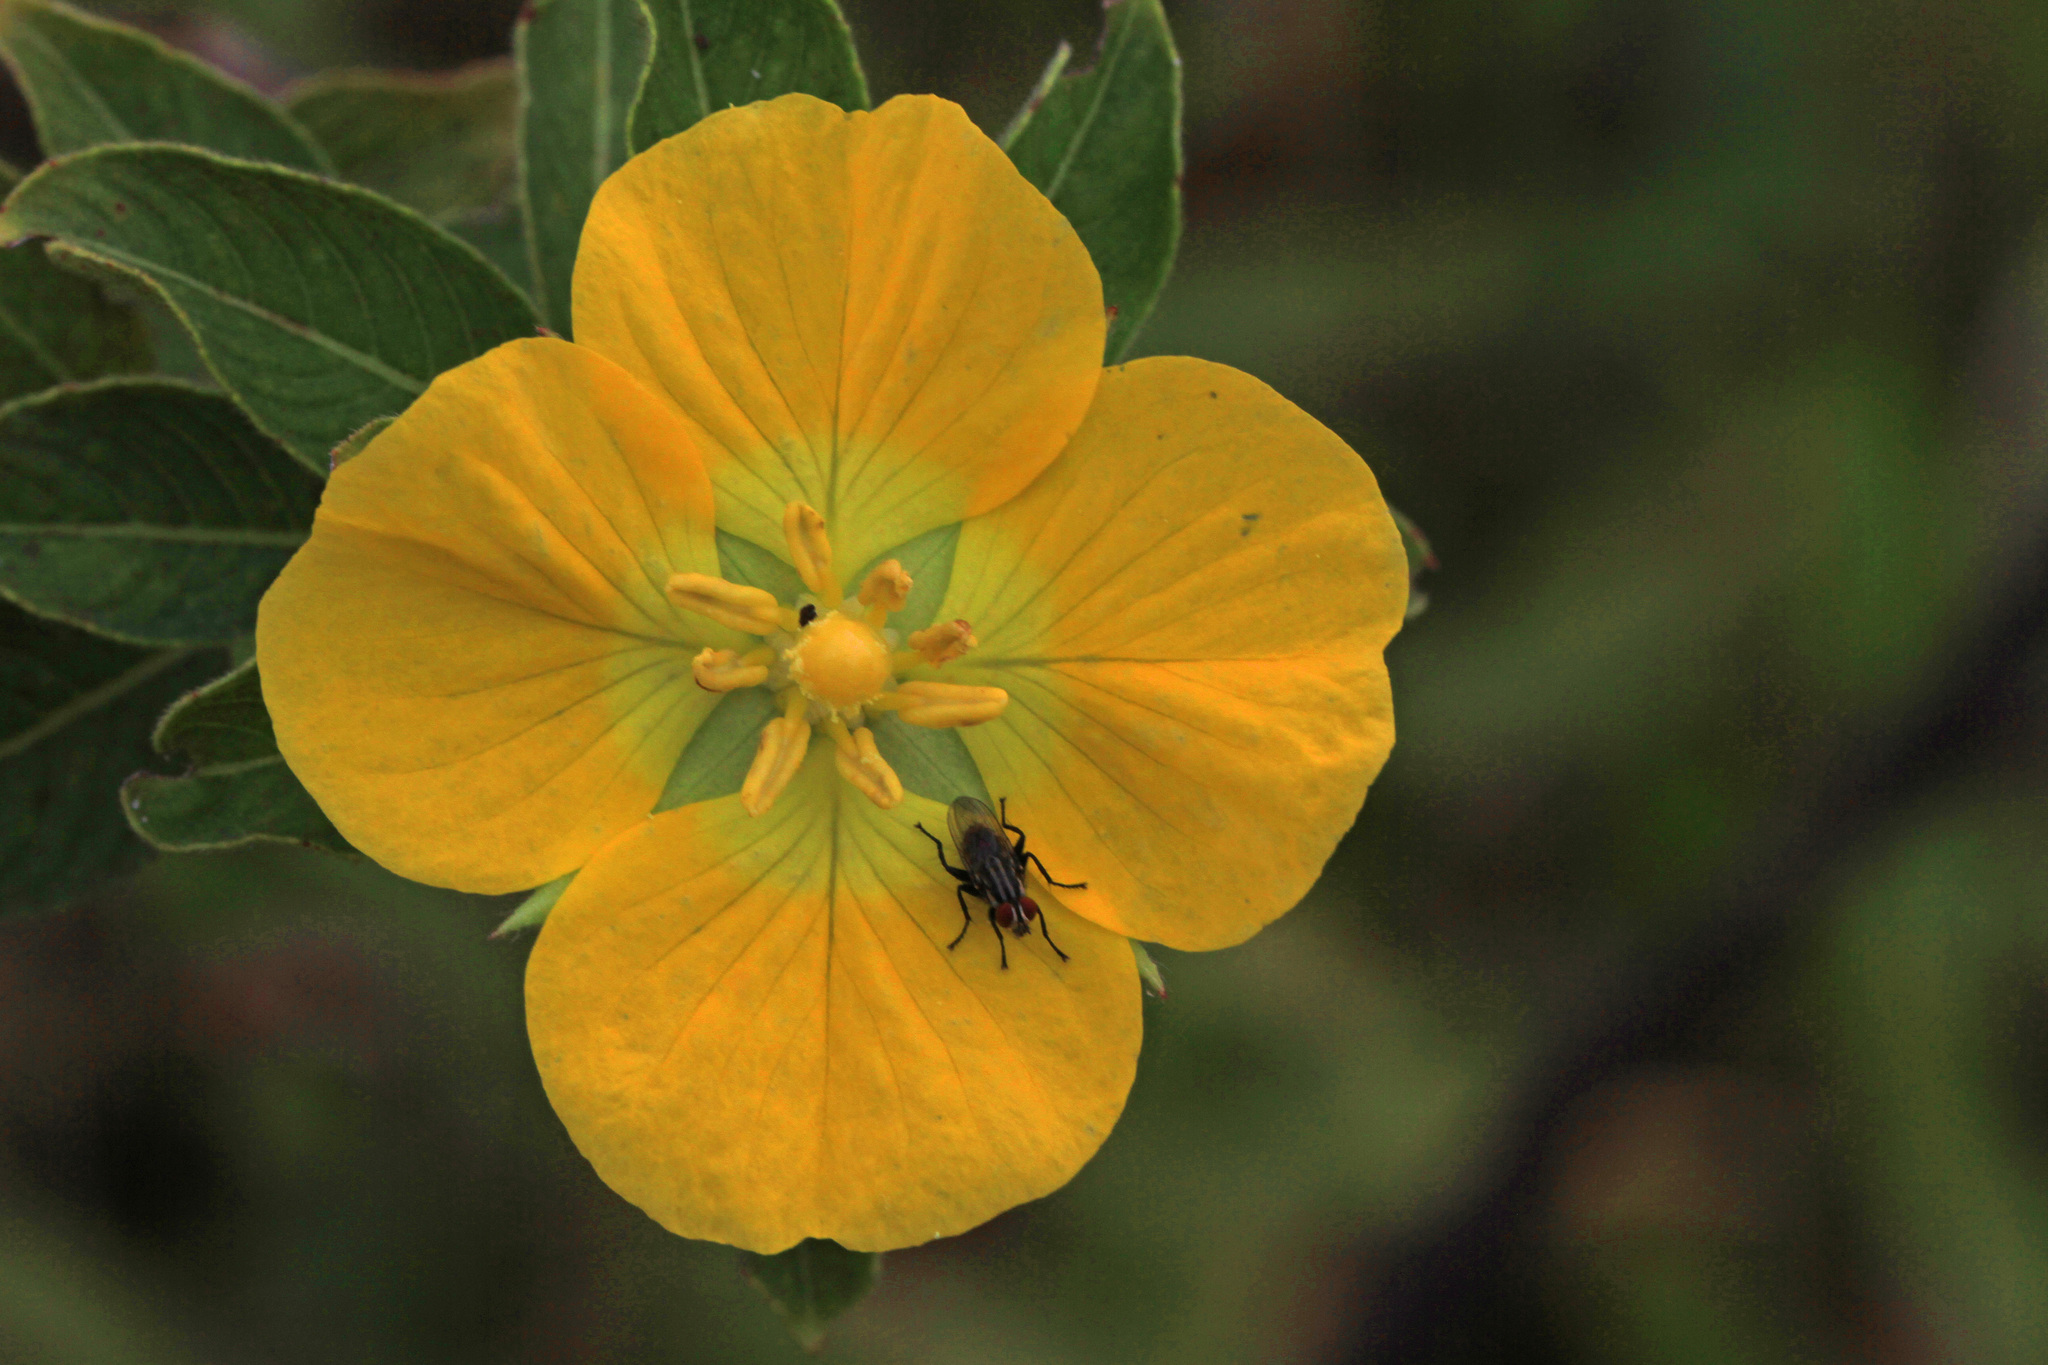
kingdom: Plantae
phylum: Tracheophyta
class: Magnoliopsida
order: Myrtales
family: Onagraceae
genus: Ludwigia
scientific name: Ludwigia peruviana
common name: Peruvian primrose-willow
